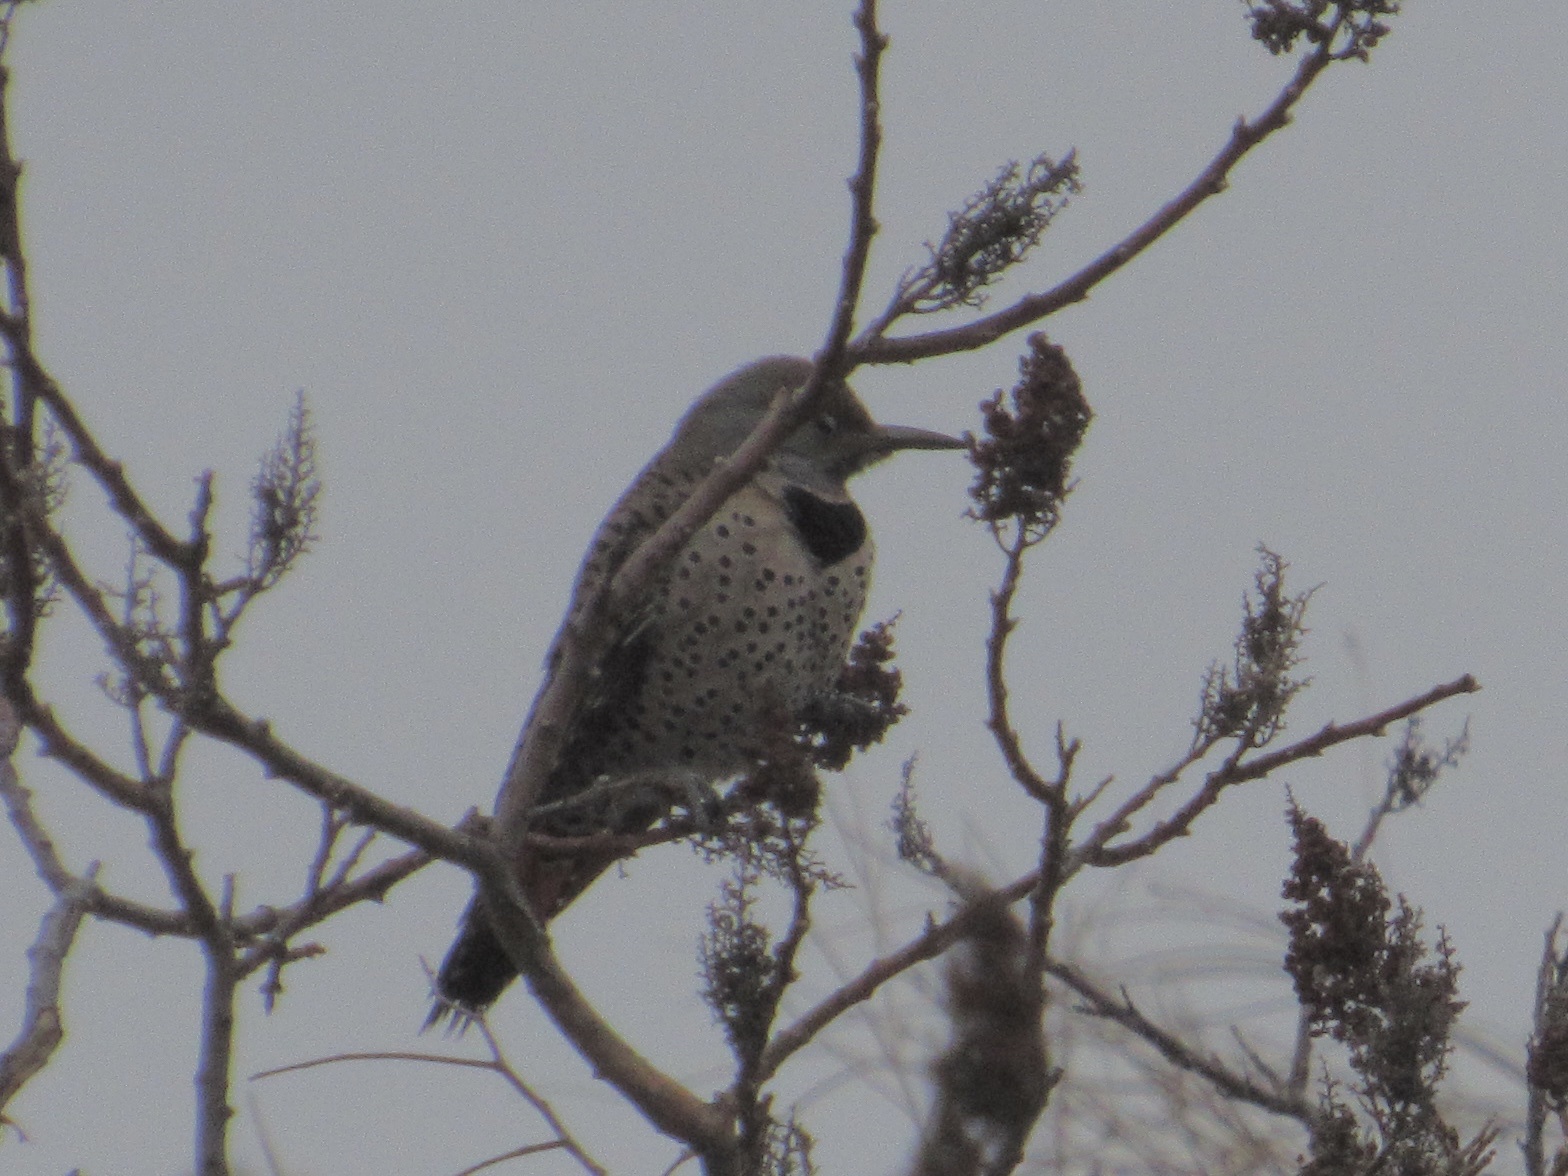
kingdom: Animalia
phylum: Chordata
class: Aves
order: Piciformes
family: Picidae
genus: Colaptes
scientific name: Colaptes auratus
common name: Northern flicker
